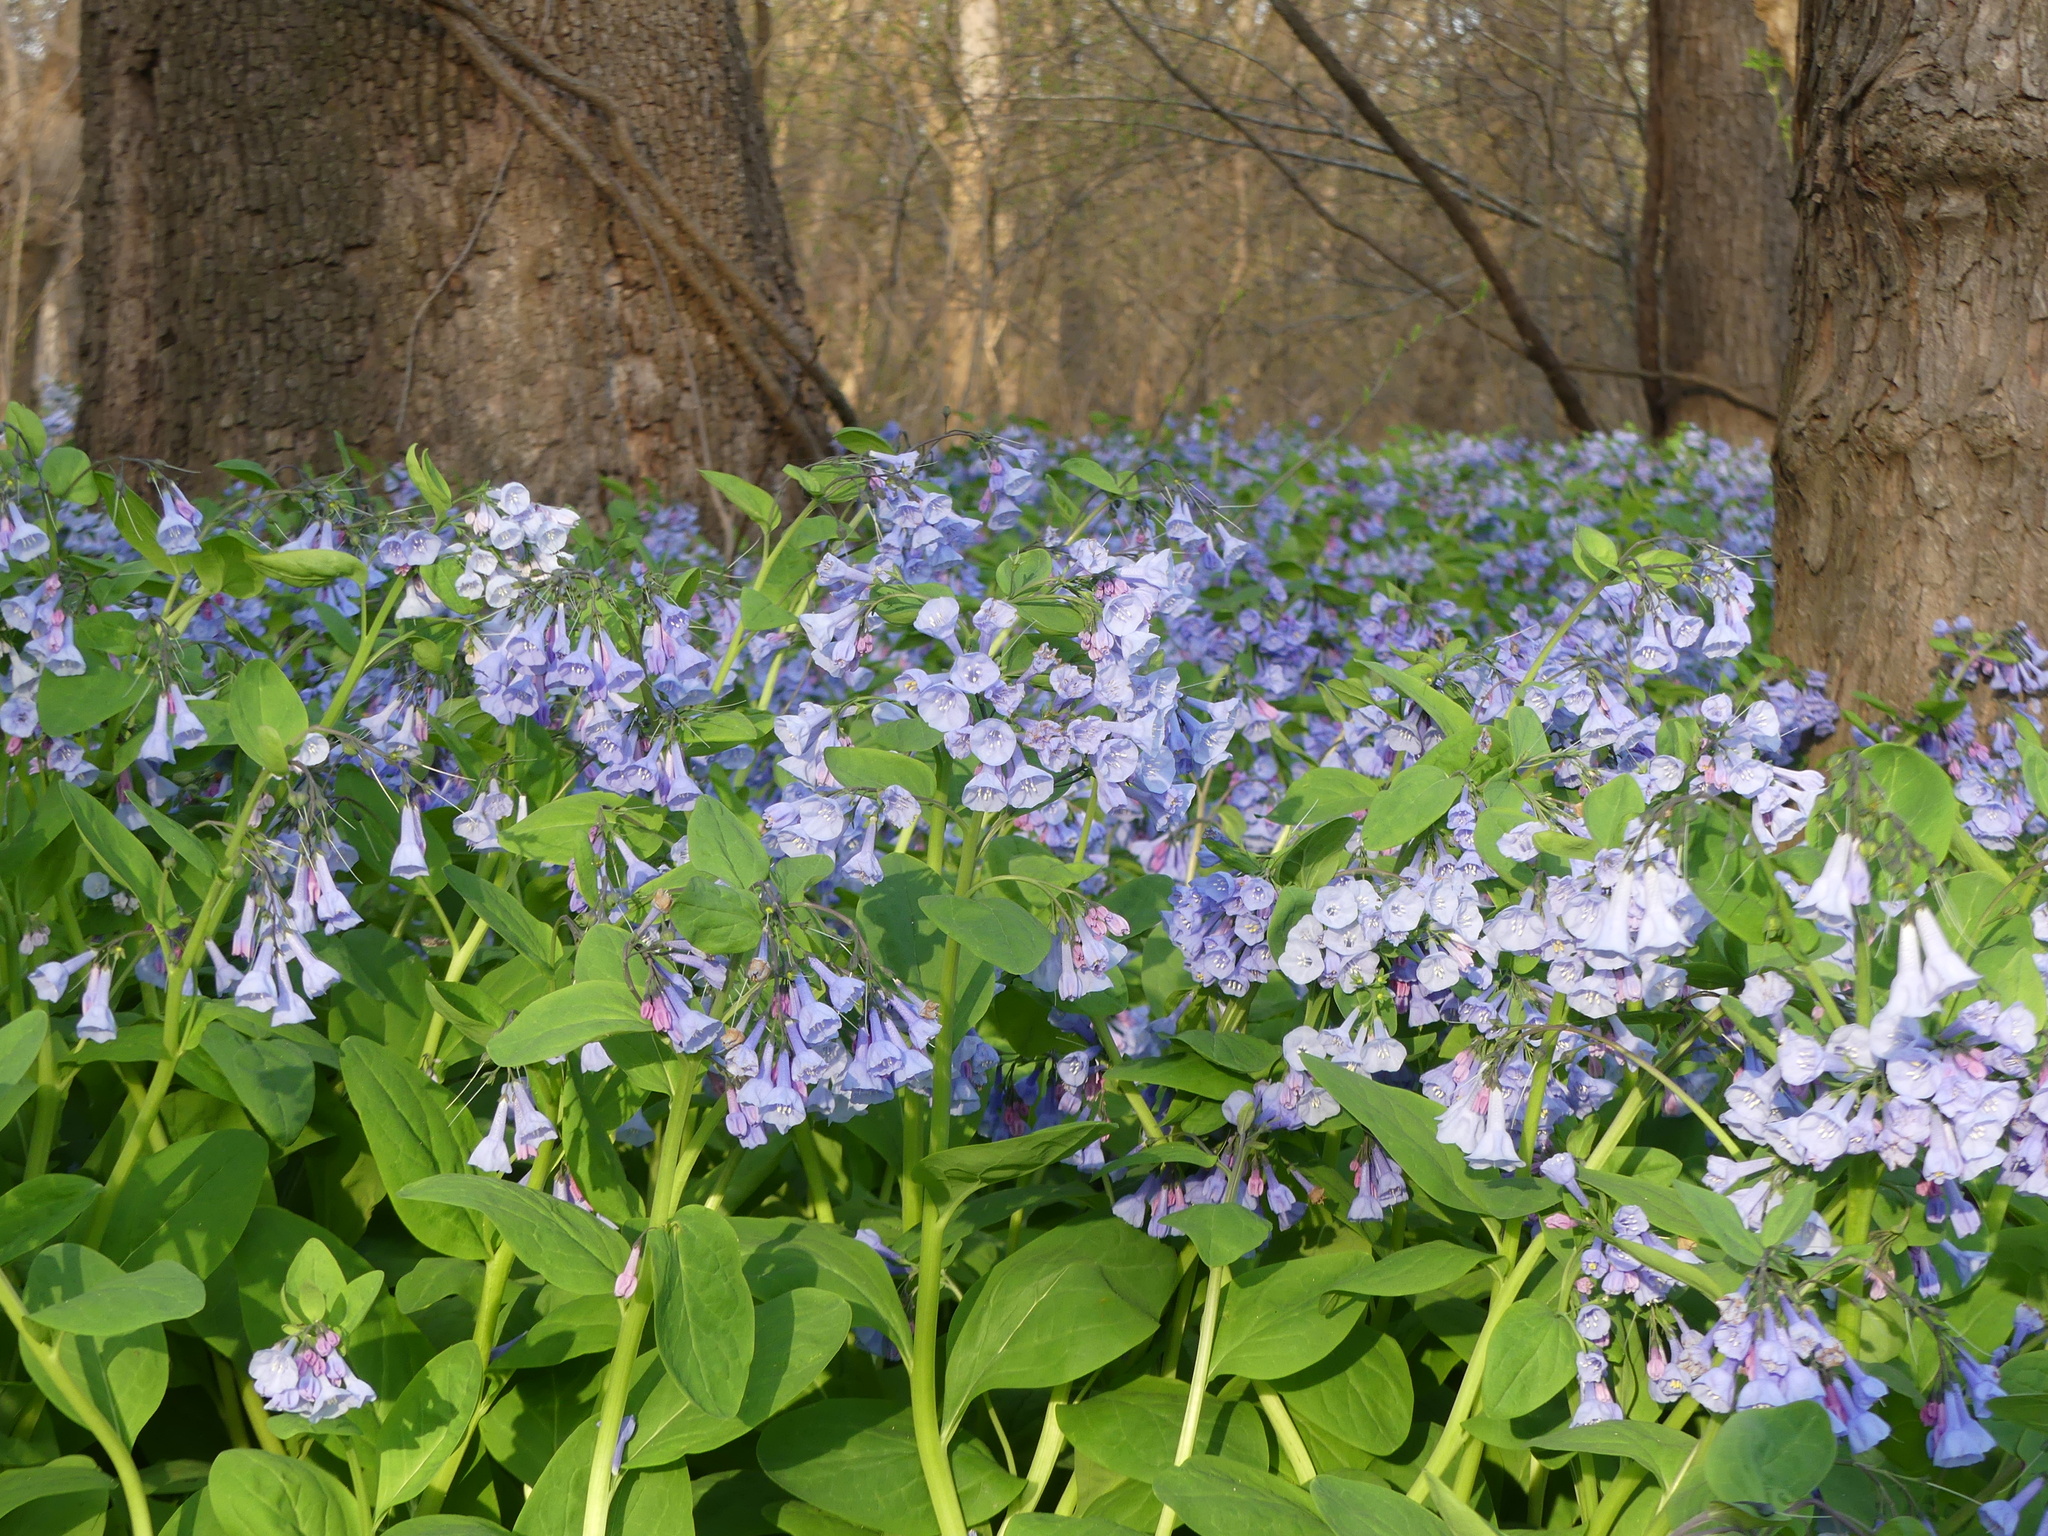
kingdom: Plantae
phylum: Tracheophyta
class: Magnoliopsida
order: Boraginales
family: Boraginaceae
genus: Mertensia
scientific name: Mertensia virginica
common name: Virginia bluebells
